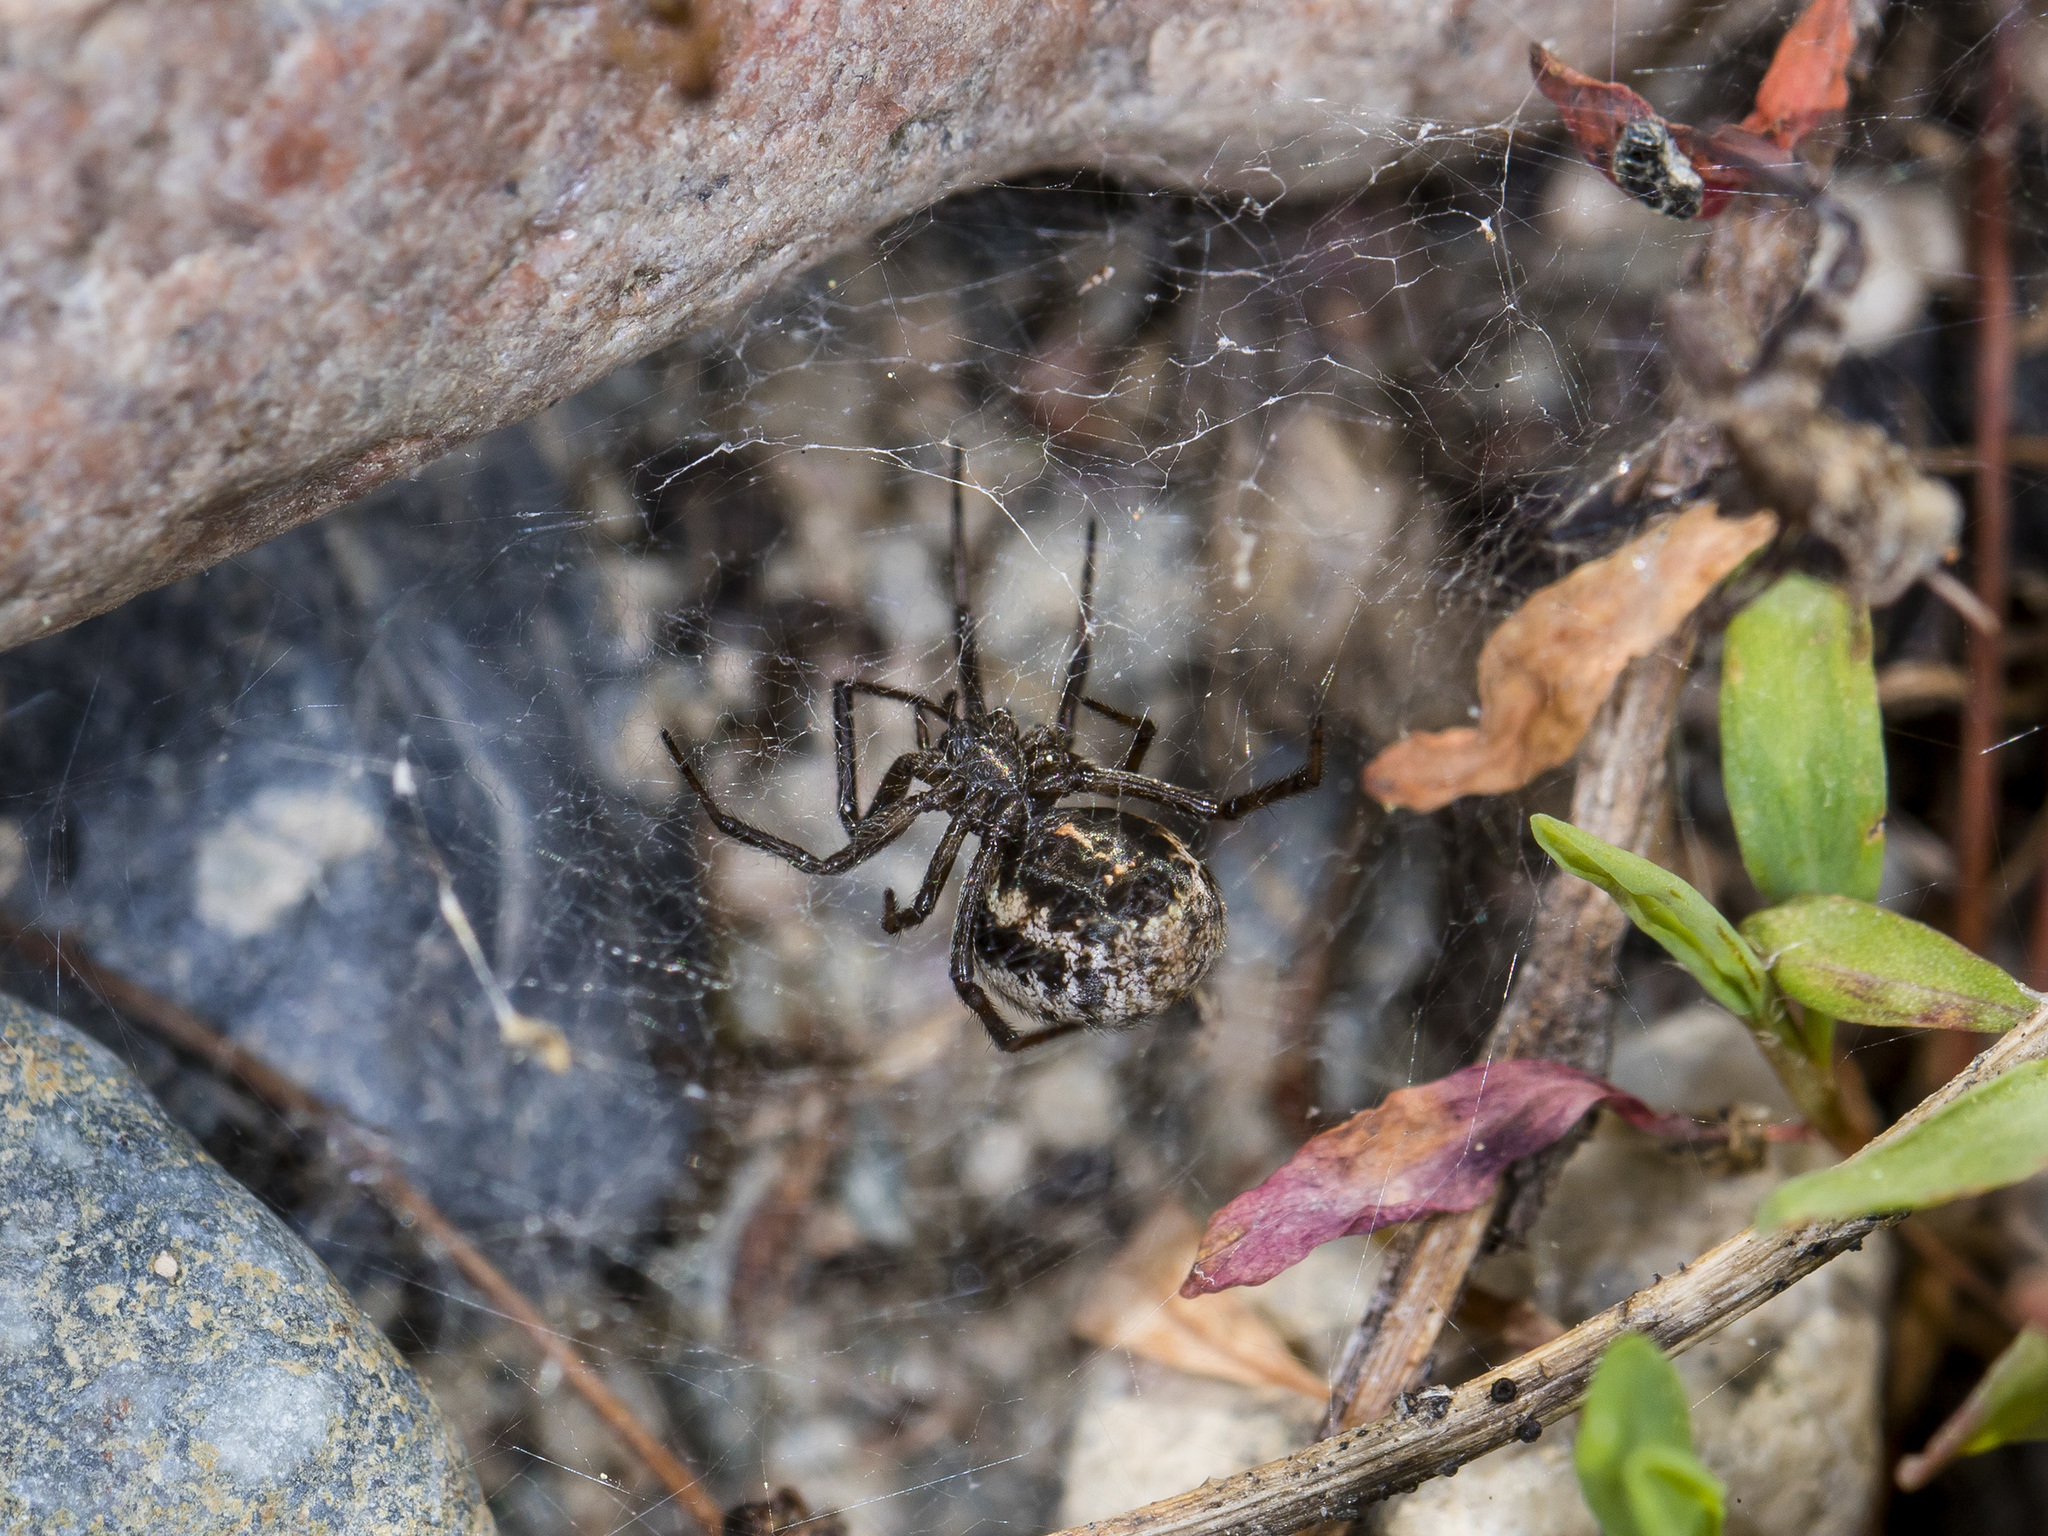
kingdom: Animalia
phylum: Arthropoda
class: Arachnida
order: Araneae
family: Theridiidae
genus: Steatoda
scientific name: Steatoda albomaculata
